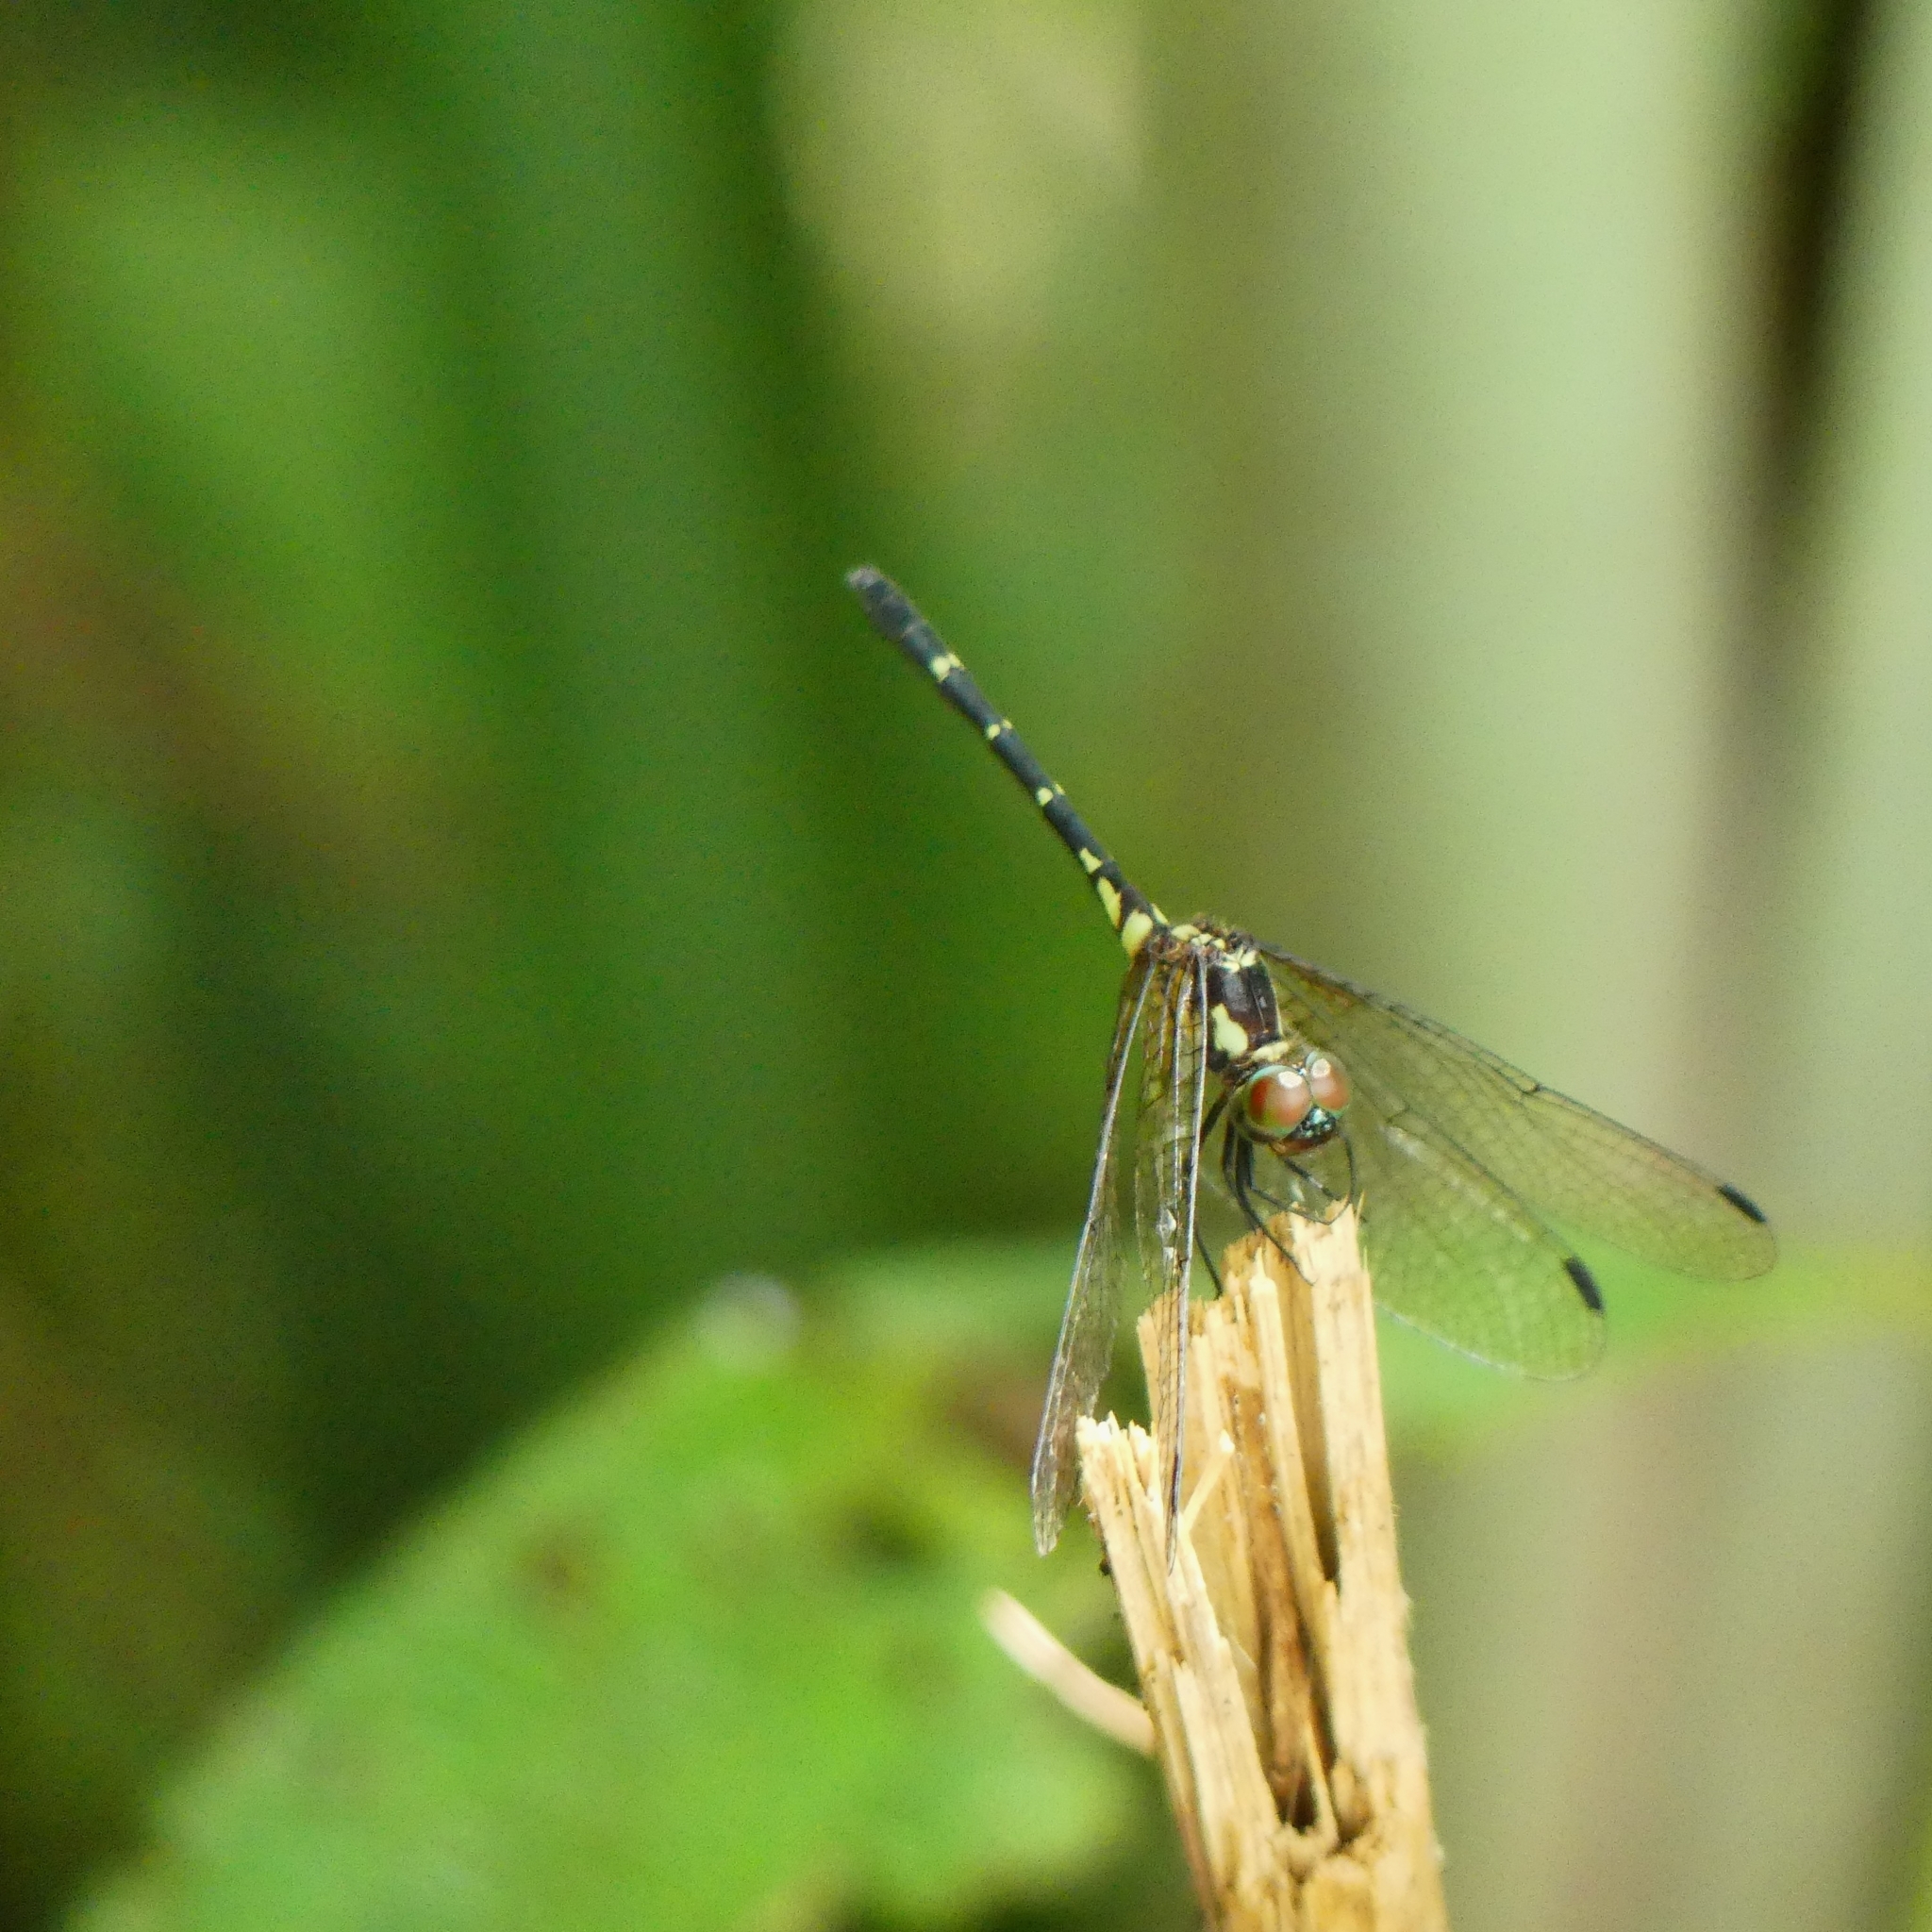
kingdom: Animalia
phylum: Arthropoda
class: Insecta
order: Odonata
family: Libellulidae
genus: Elga
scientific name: Elga leptostyla
